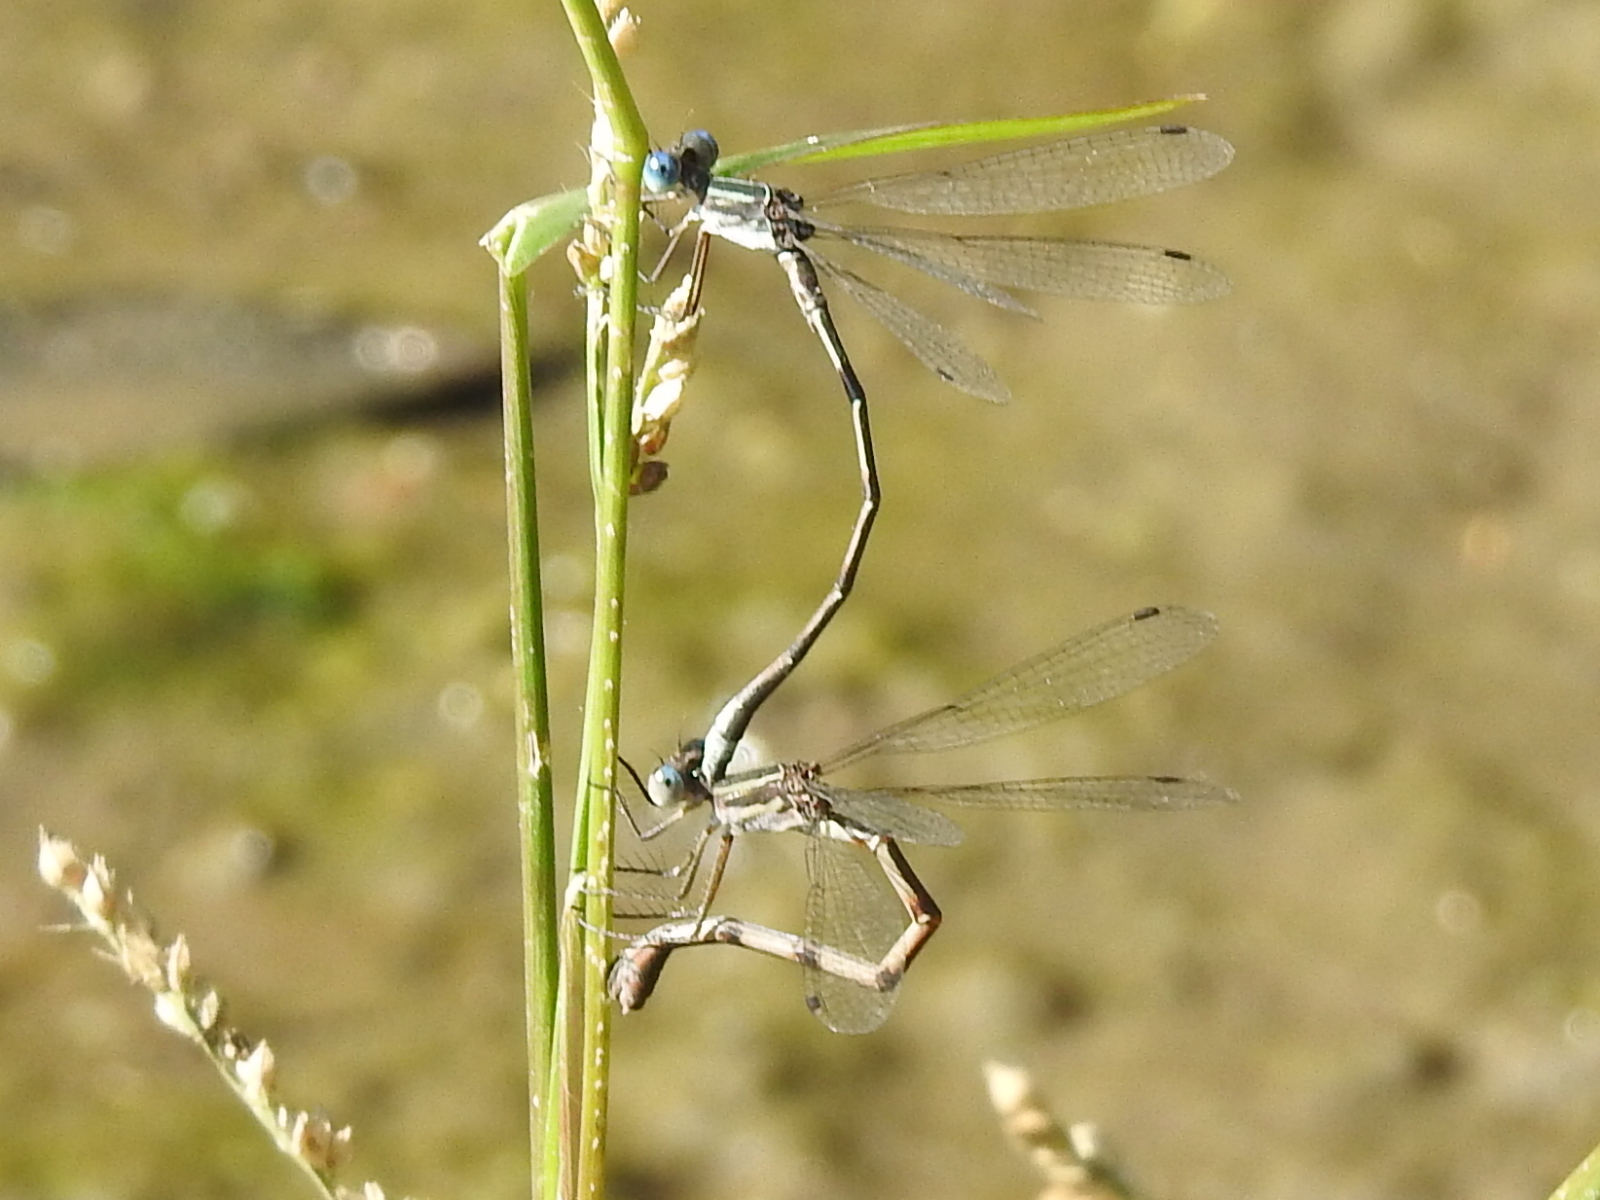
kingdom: Animalia
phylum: Arthropoda
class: Insecta
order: Odonata
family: Lestidae
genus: Lestes
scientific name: Lestes australis
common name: Southern spreadwing
